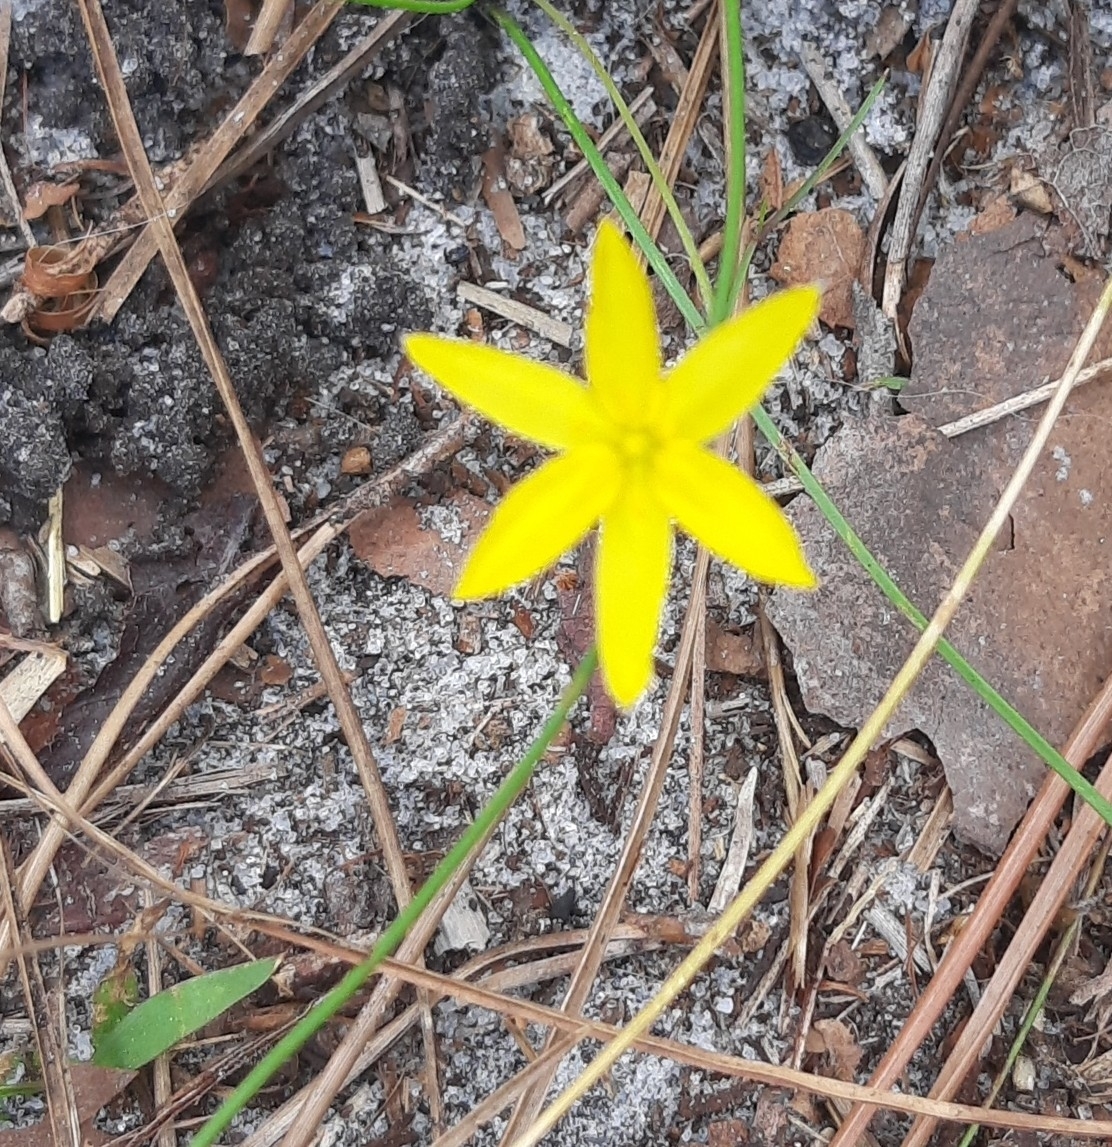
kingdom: Plantae
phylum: Tracheophyta
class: Liliopsida
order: Asparagales
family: Hypoxidaceae
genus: Hypoxis
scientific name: Hypoxis juncea
